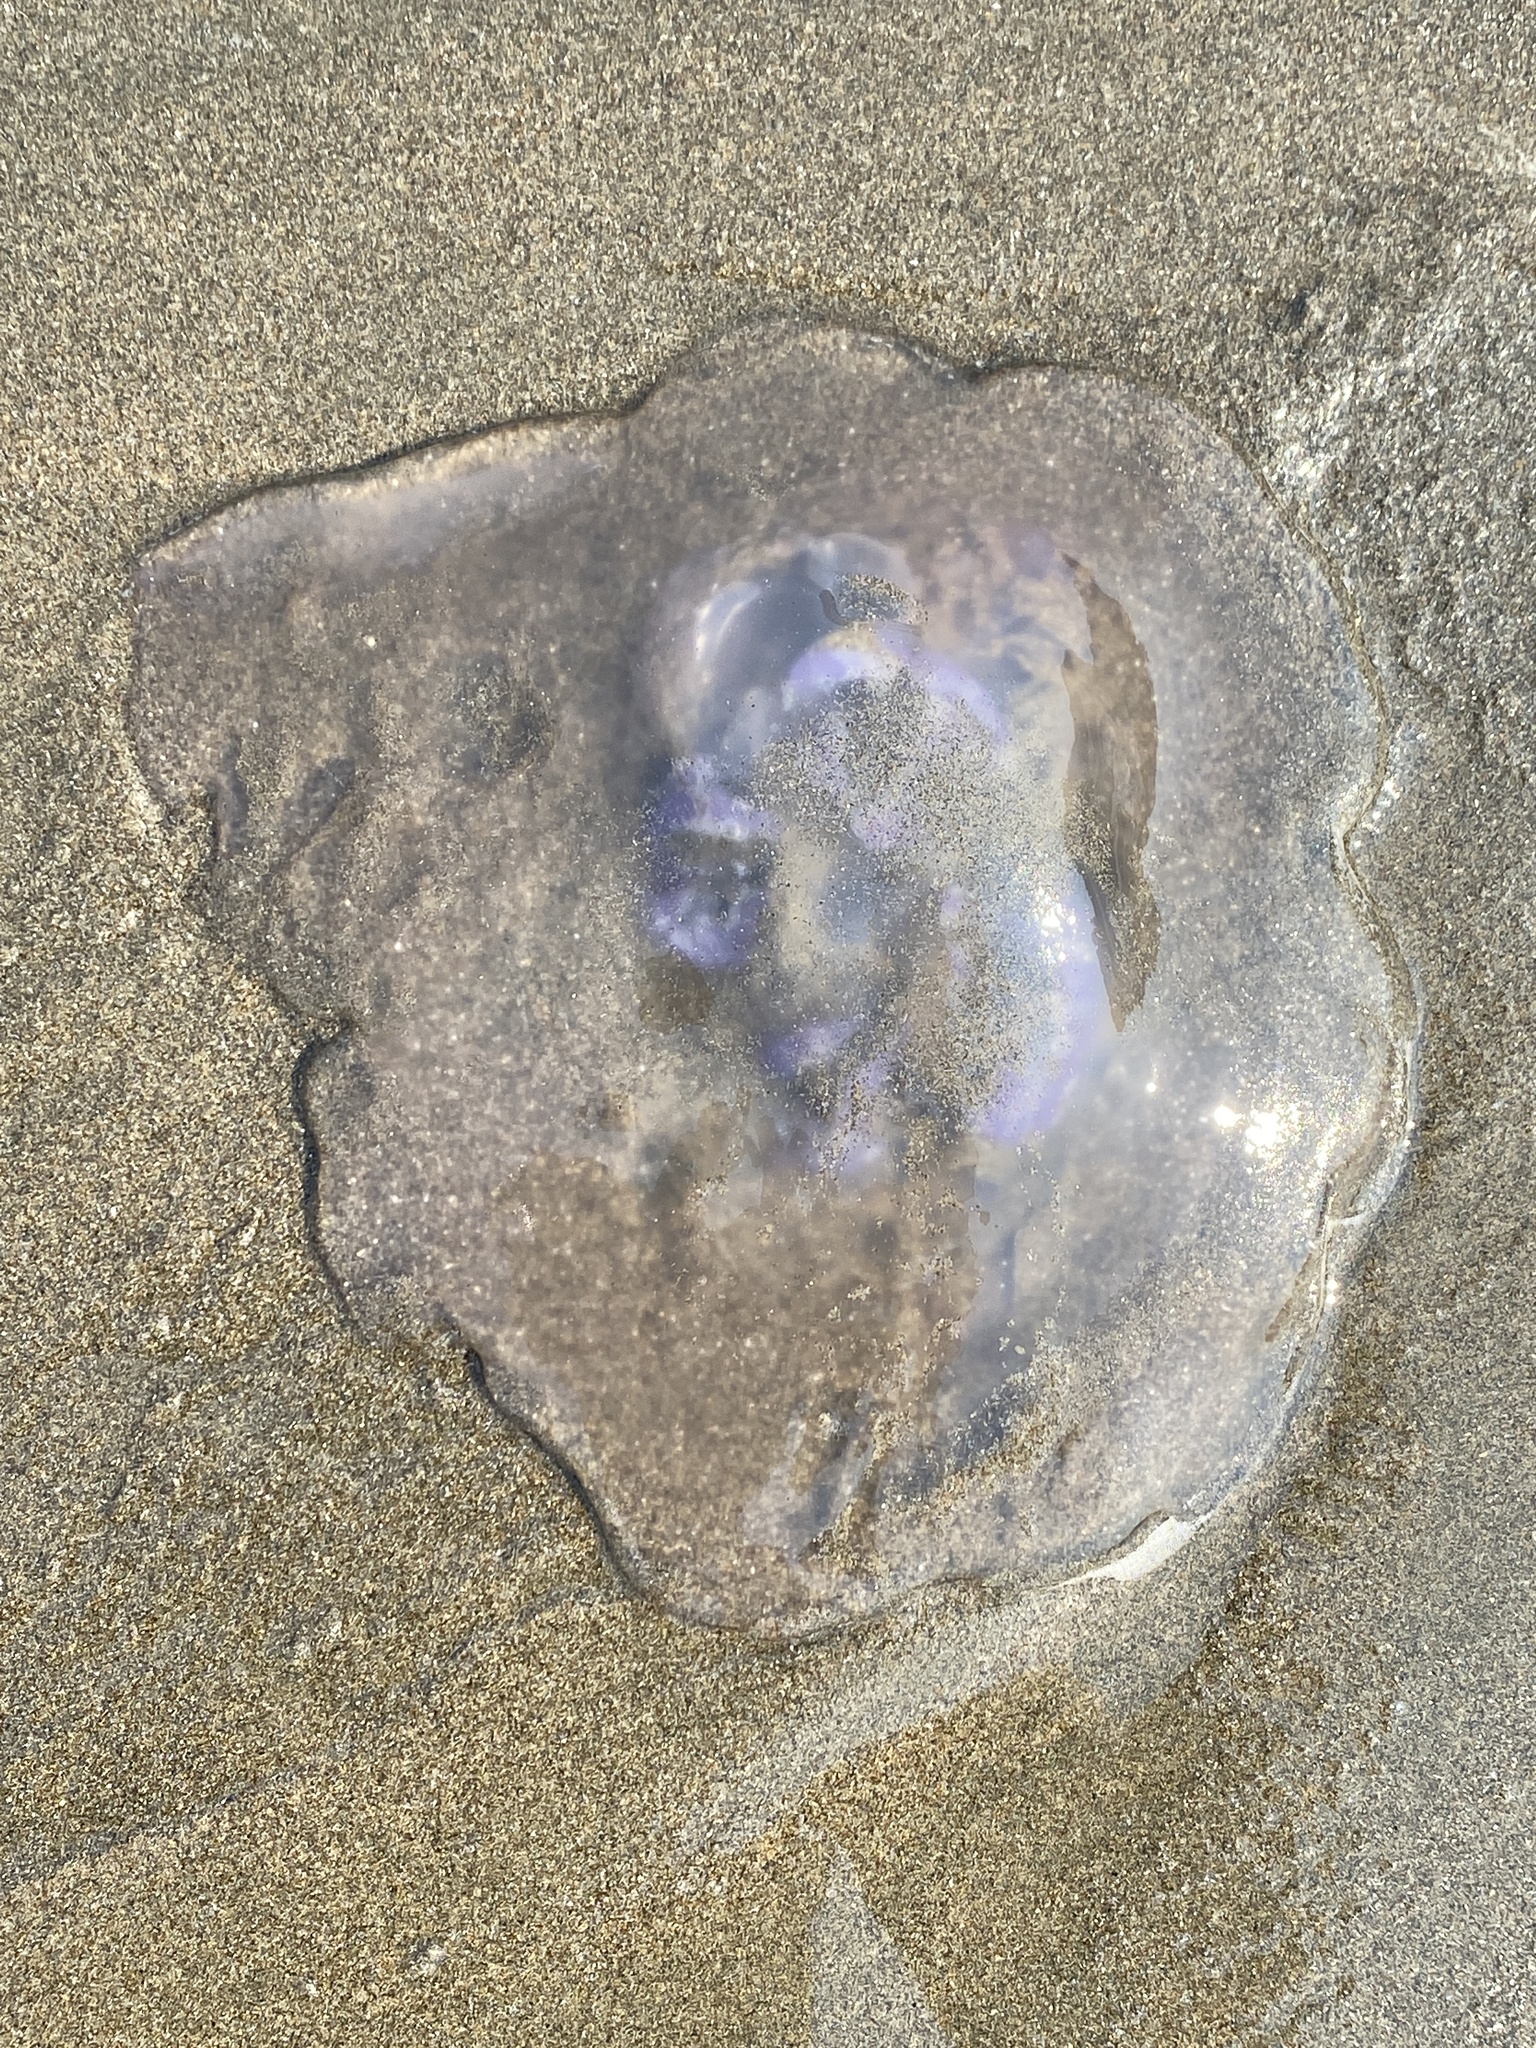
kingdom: Animalia
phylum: Cnidaria
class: Scyphozoa
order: Semaeostomeae
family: Ulmaridae
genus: Aurelia
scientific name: Aurelia labiata
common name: Pacific moon jelly
